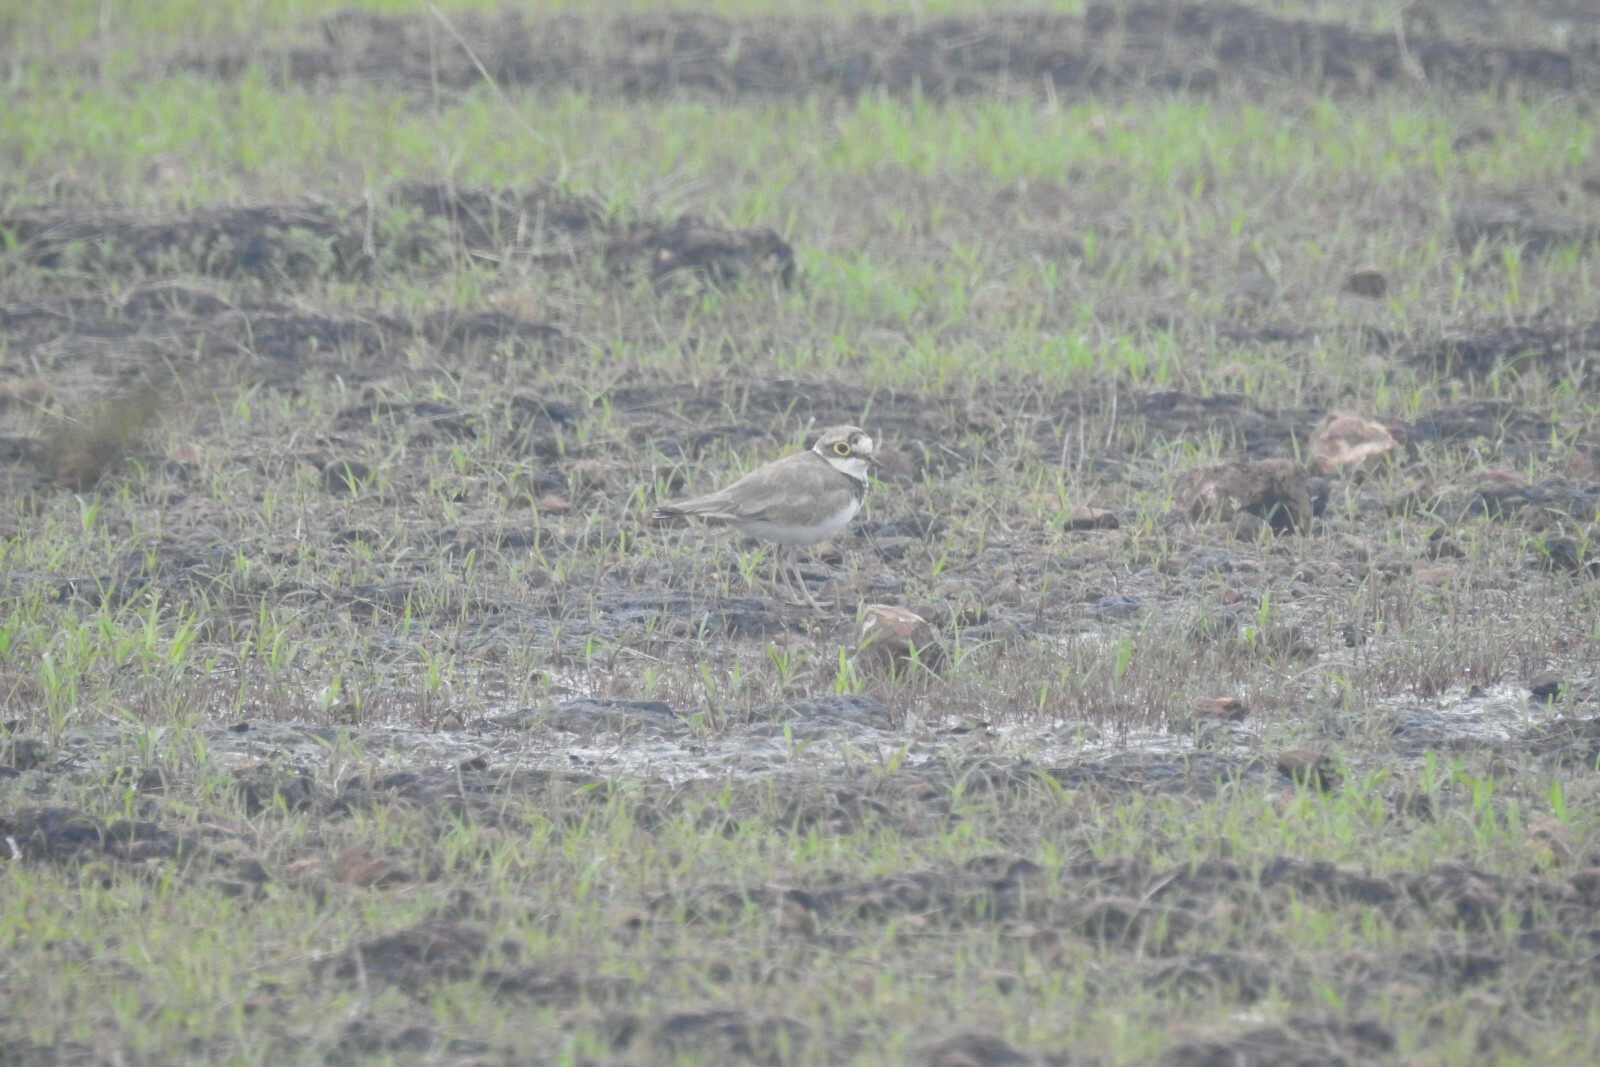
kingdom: Animalia
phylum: Chordata
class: Aves
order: Charadriiformes
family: Charadriidae
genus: Charadrius
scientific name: Charadrius dubius
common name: Little ringed plover
